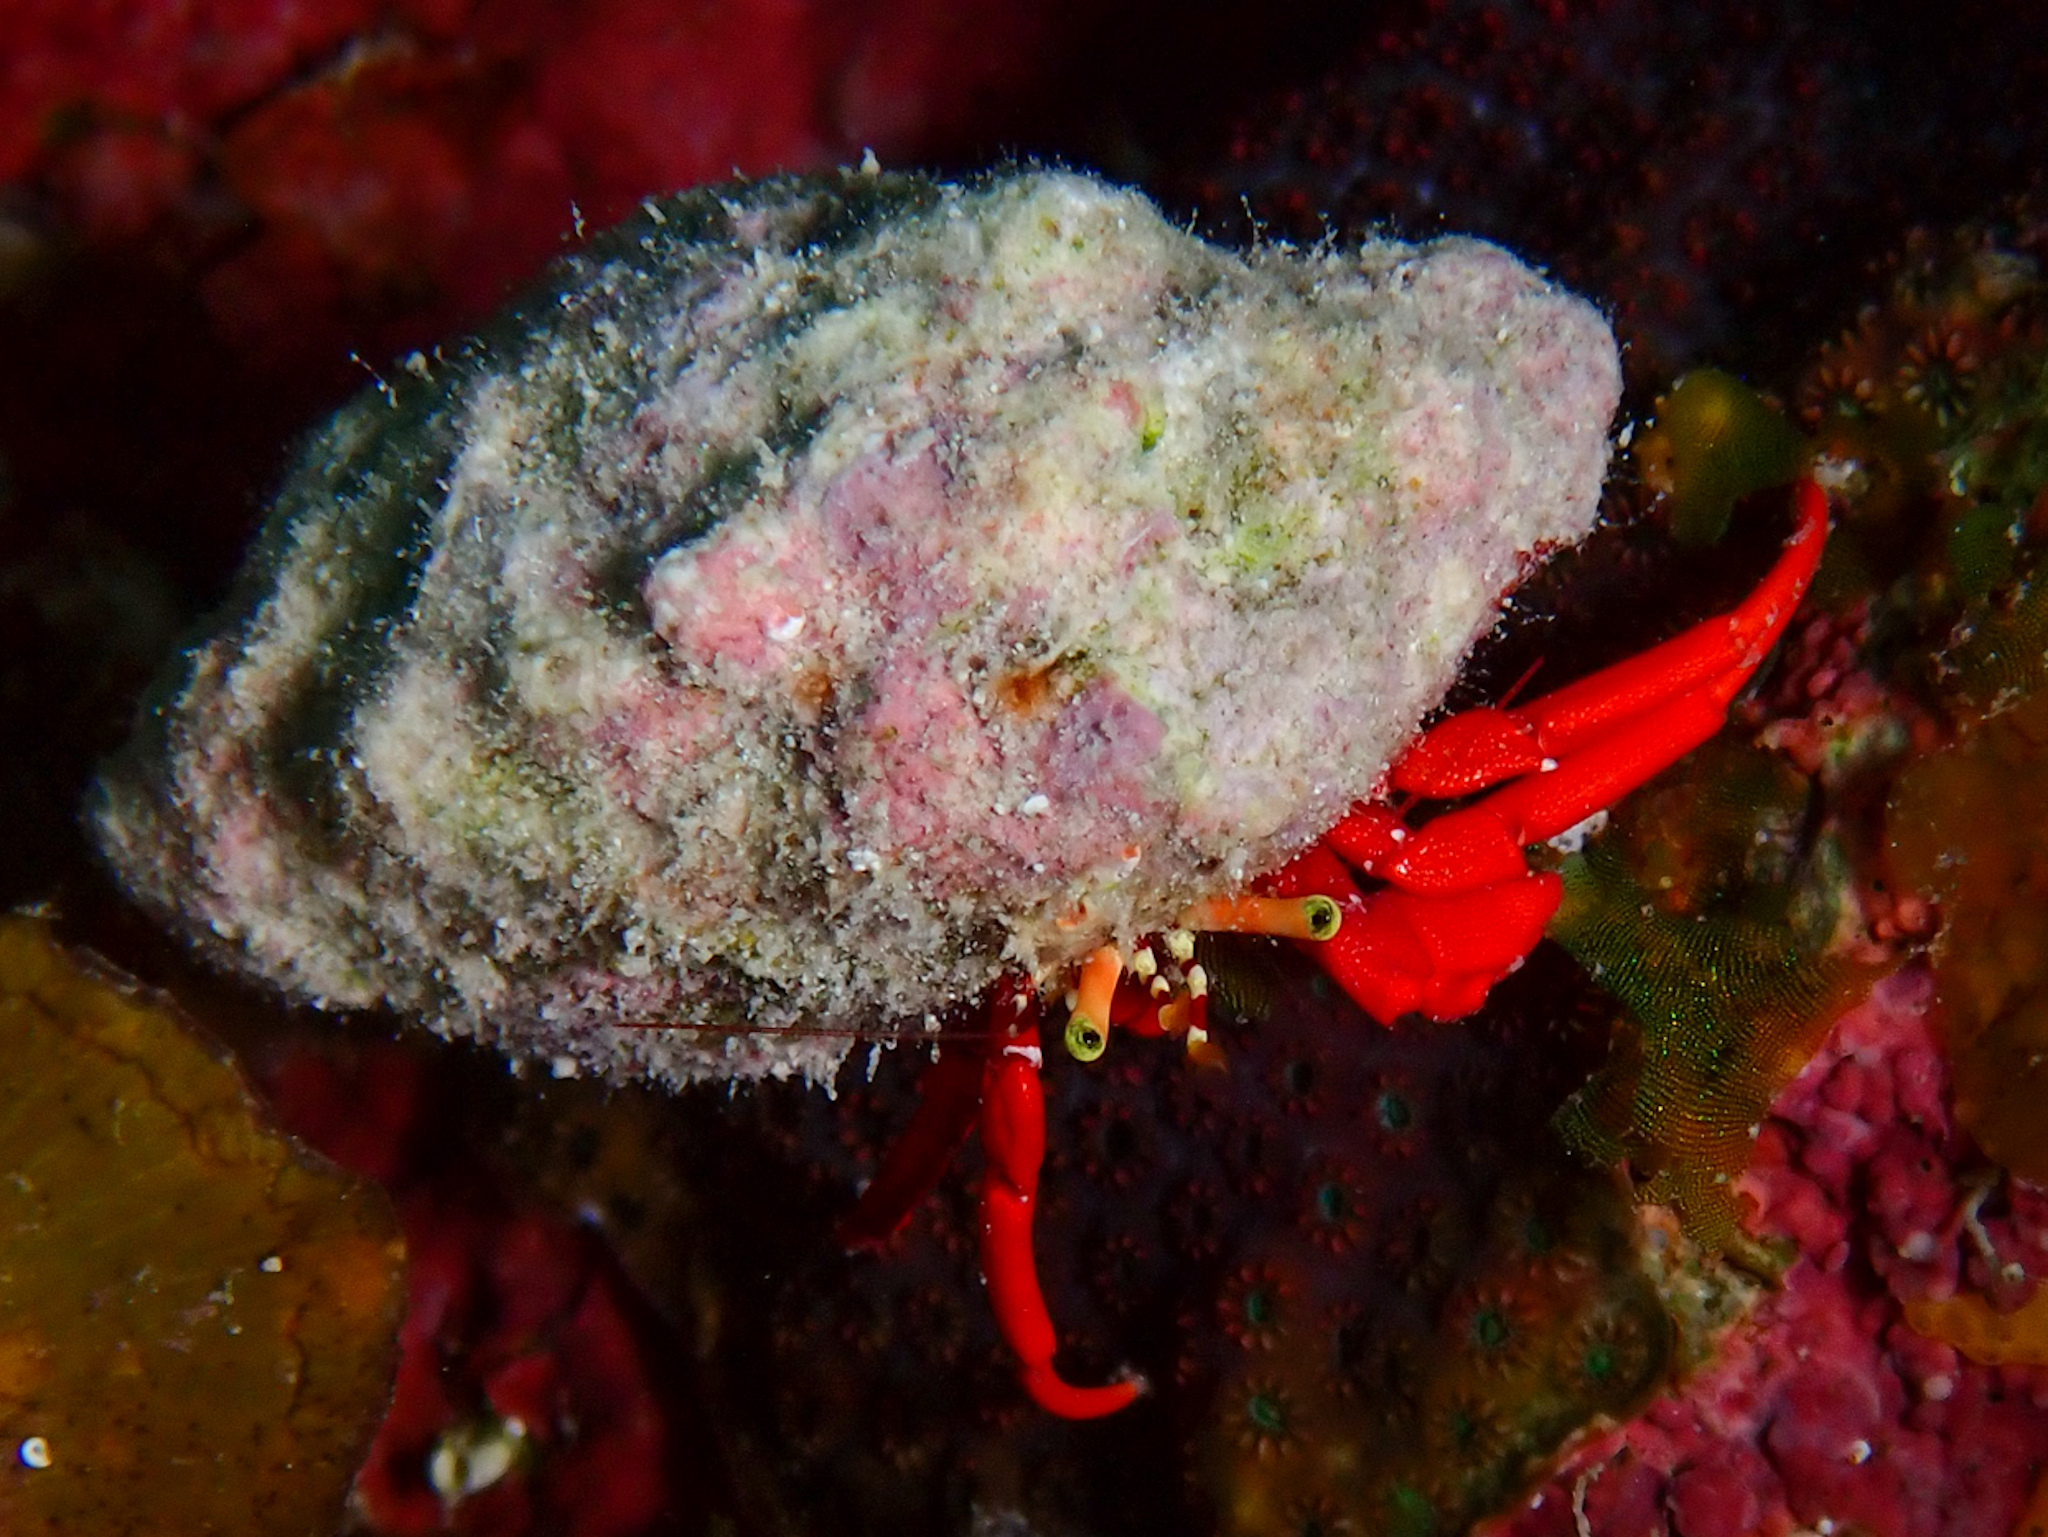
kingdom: Animalia
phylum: Arthropoda
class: Malacostraca
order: Decapoda
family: Diogenidae
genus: Paguristes
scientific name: Paguristes cadenati
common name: Red reef hermit
